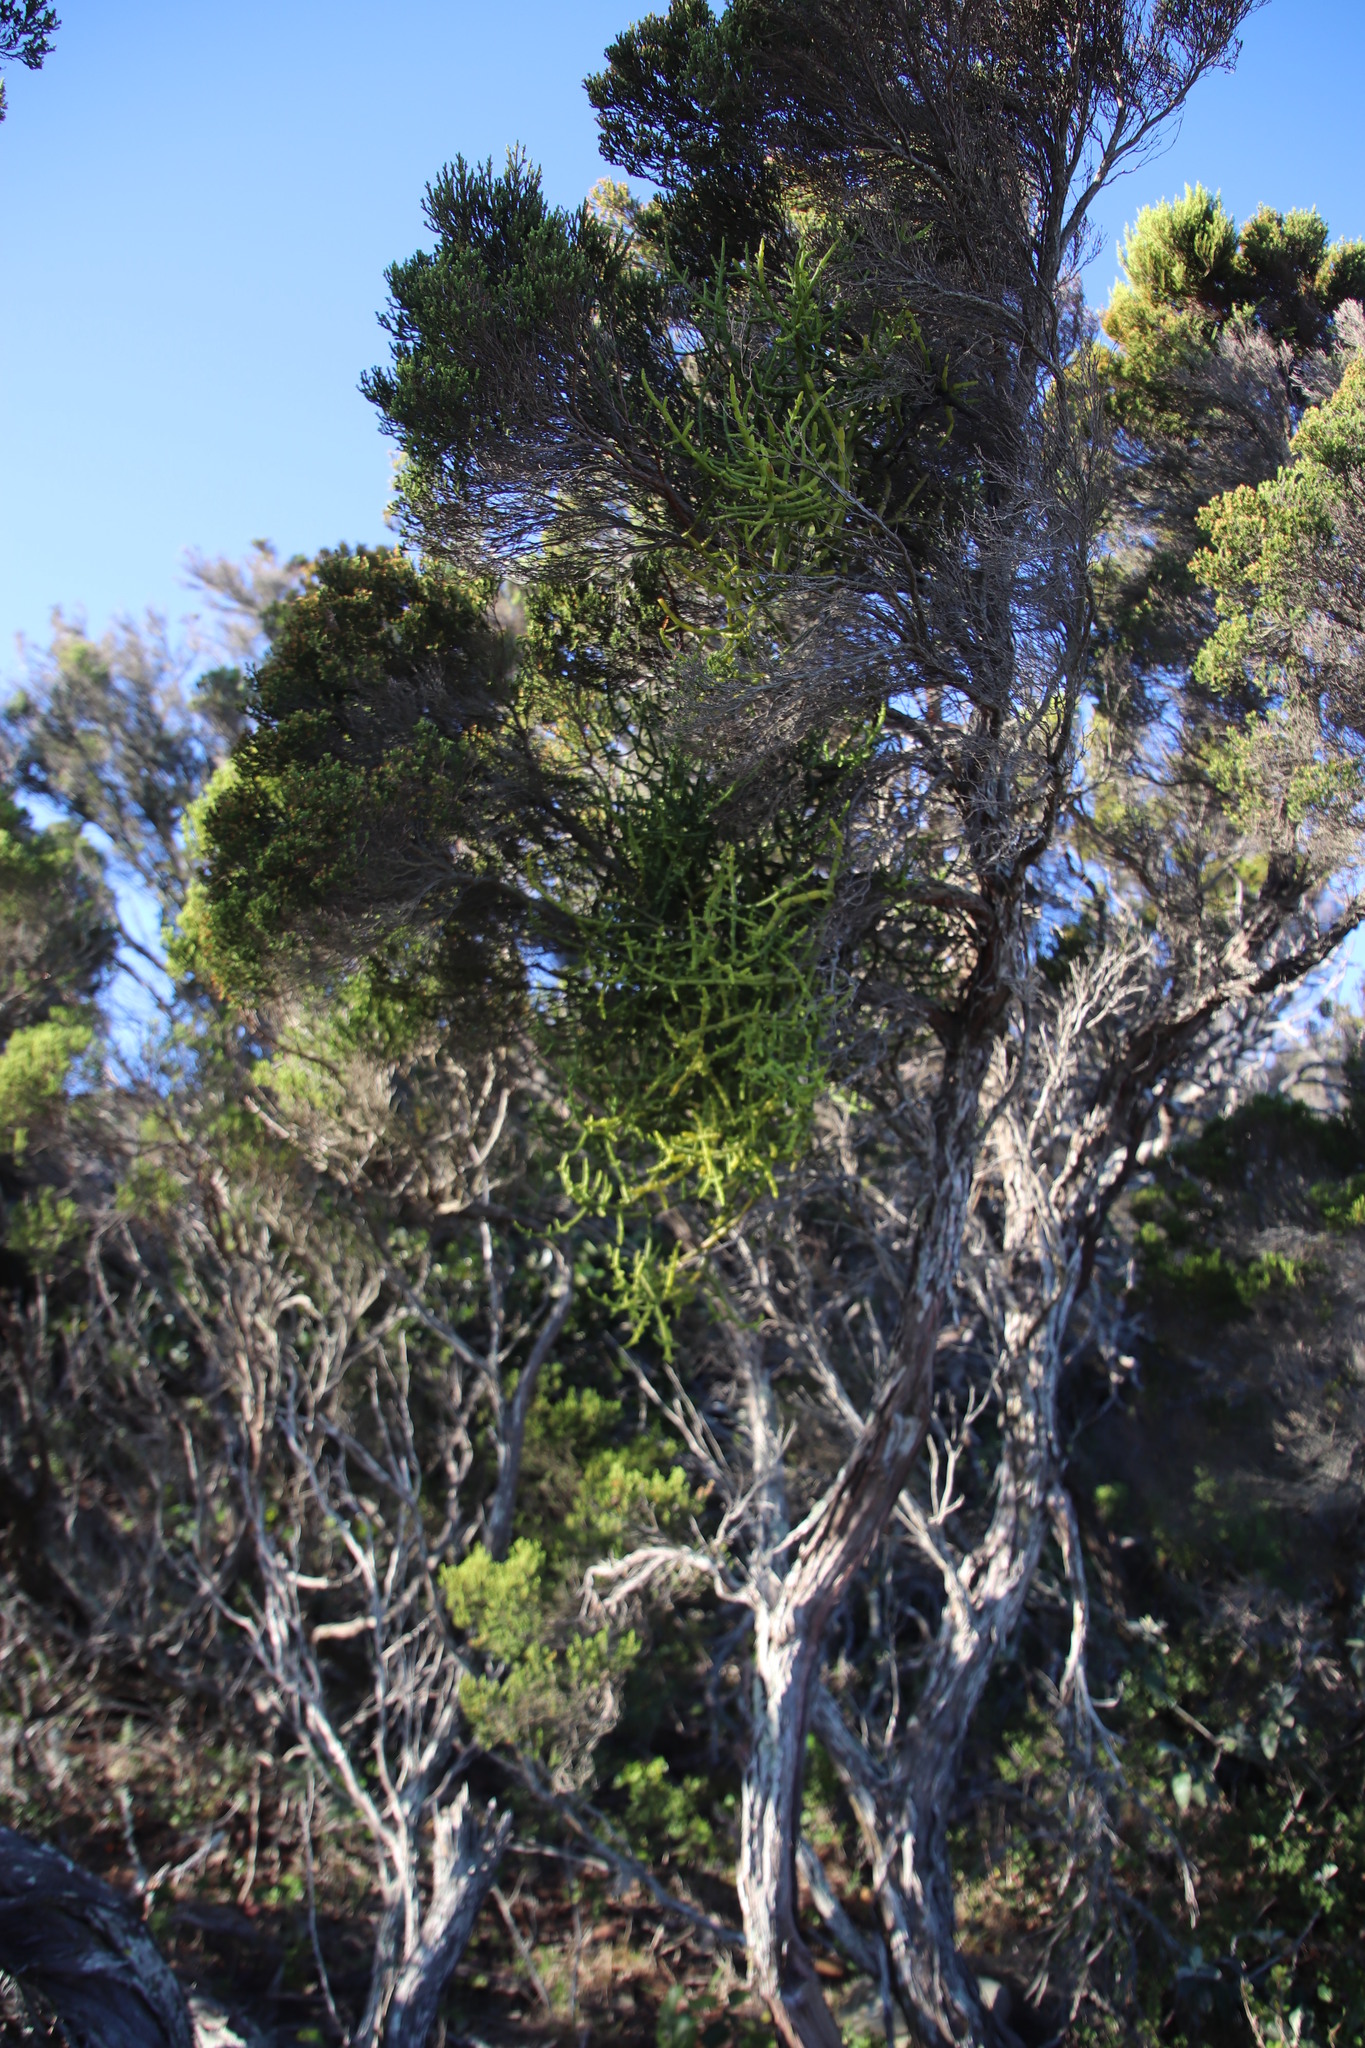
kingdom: Plantae
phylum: Tracheophyta
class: Magnoliopsida
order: Ericales
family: Ericaceae
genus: Erica
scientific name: Erica tristis
